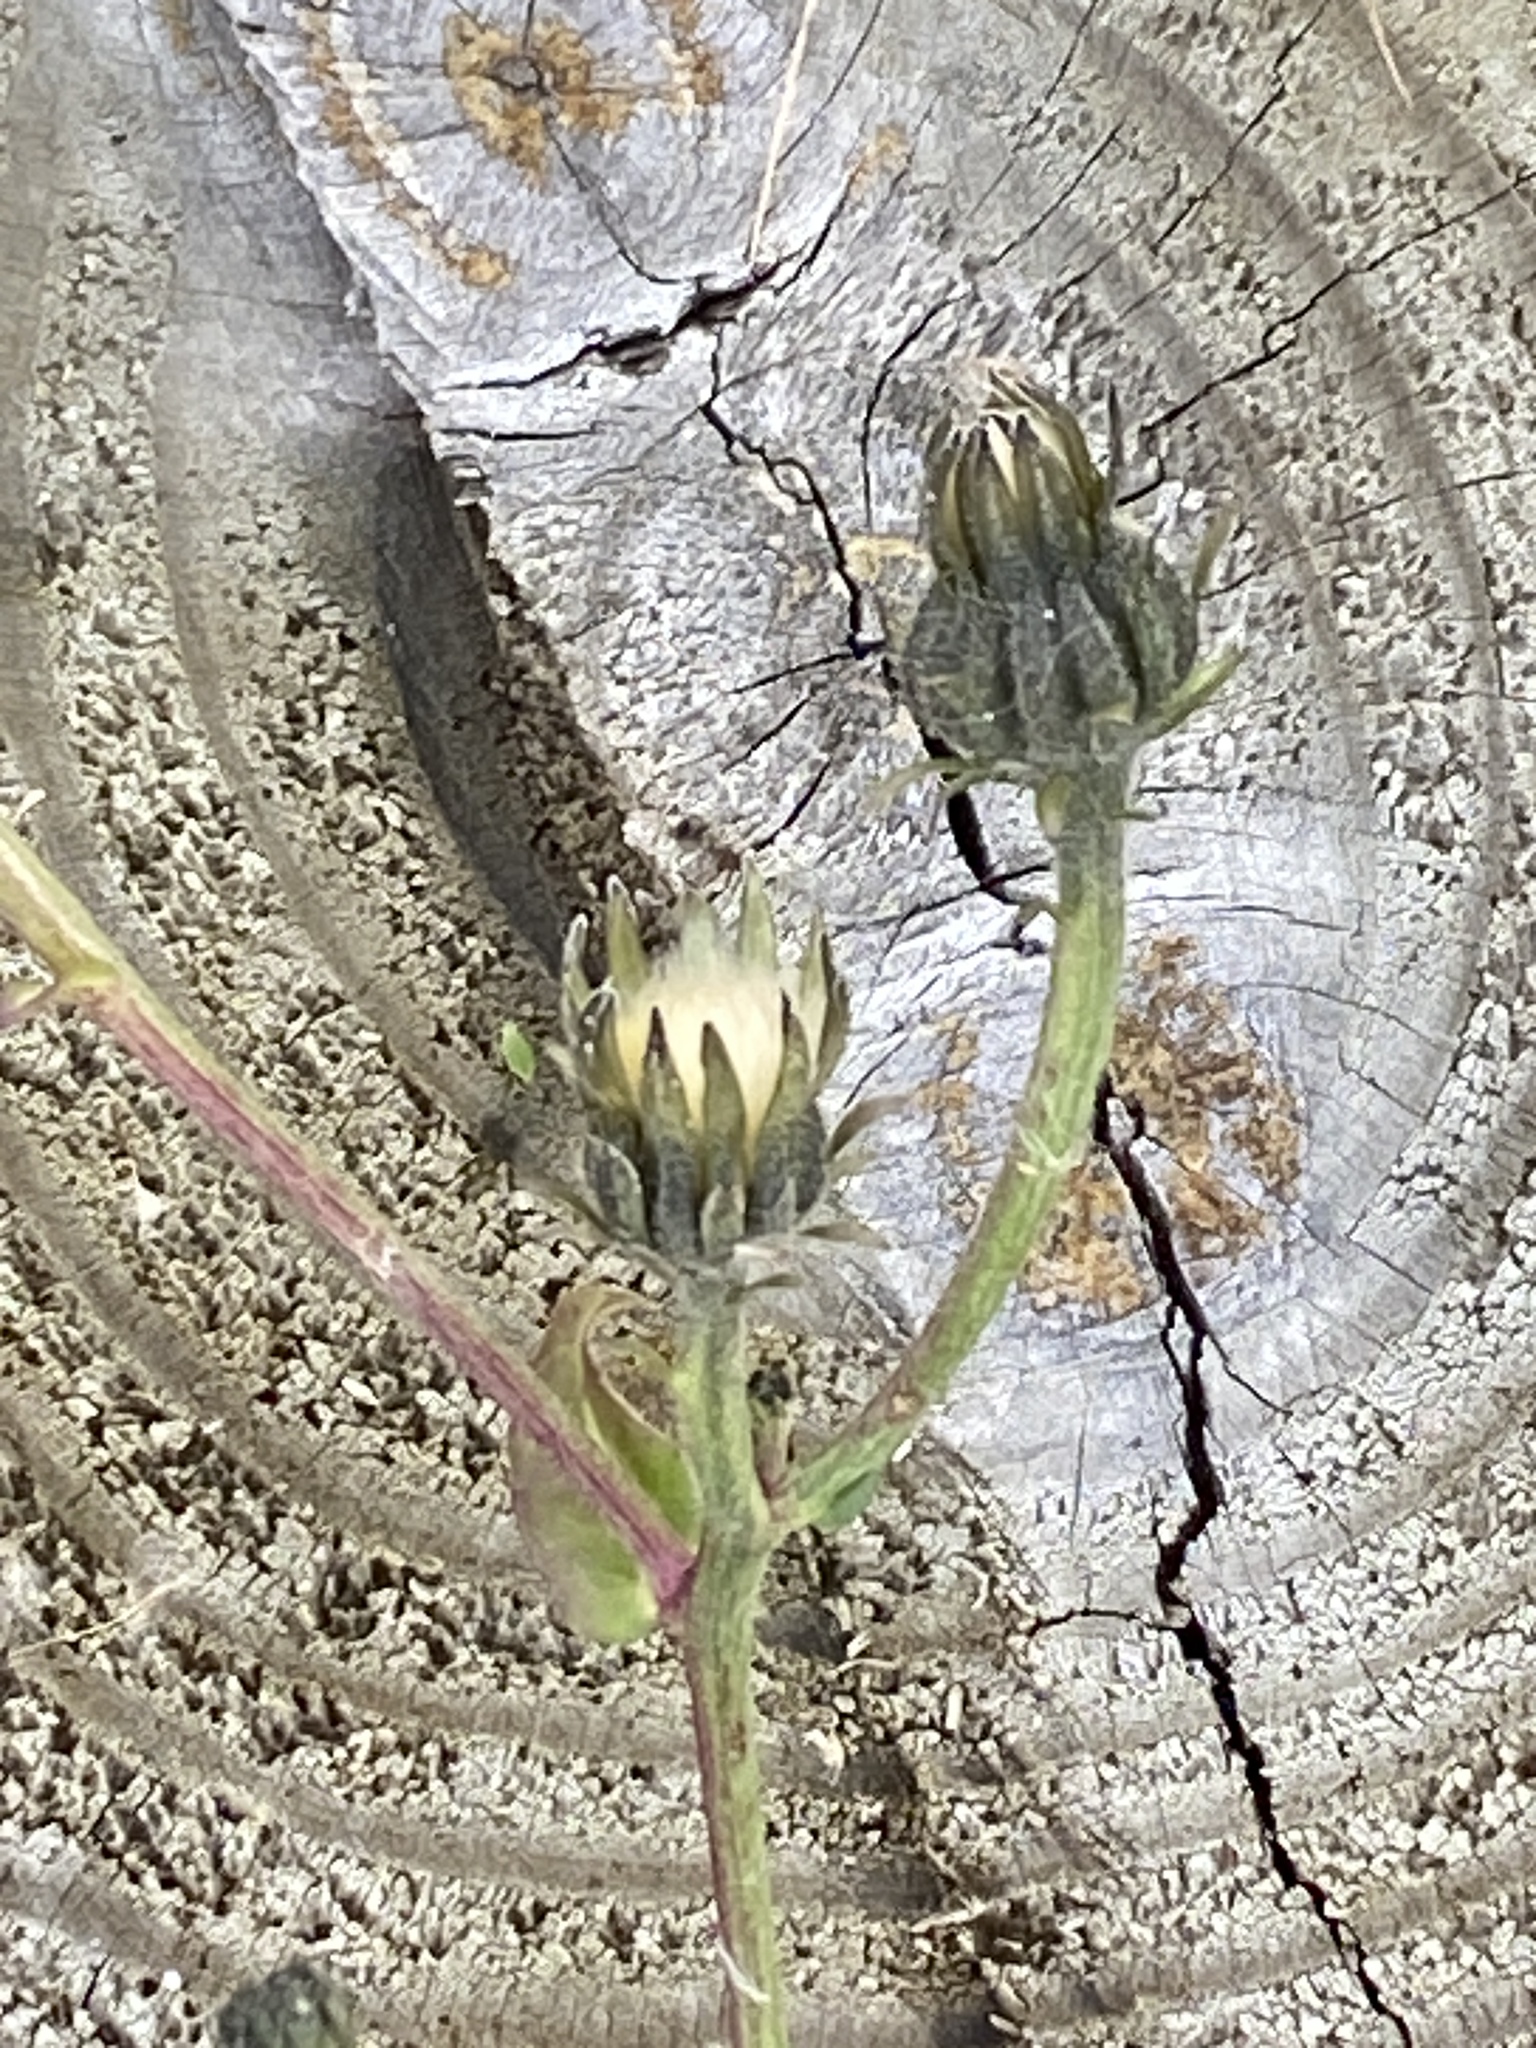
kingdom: Plantae
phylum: Tracheophyta
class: Magnoliopsida
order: Asterales
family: Asteraceae
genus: Picris
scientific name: Picris hieracioides
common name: Hawkweed oxtongue
